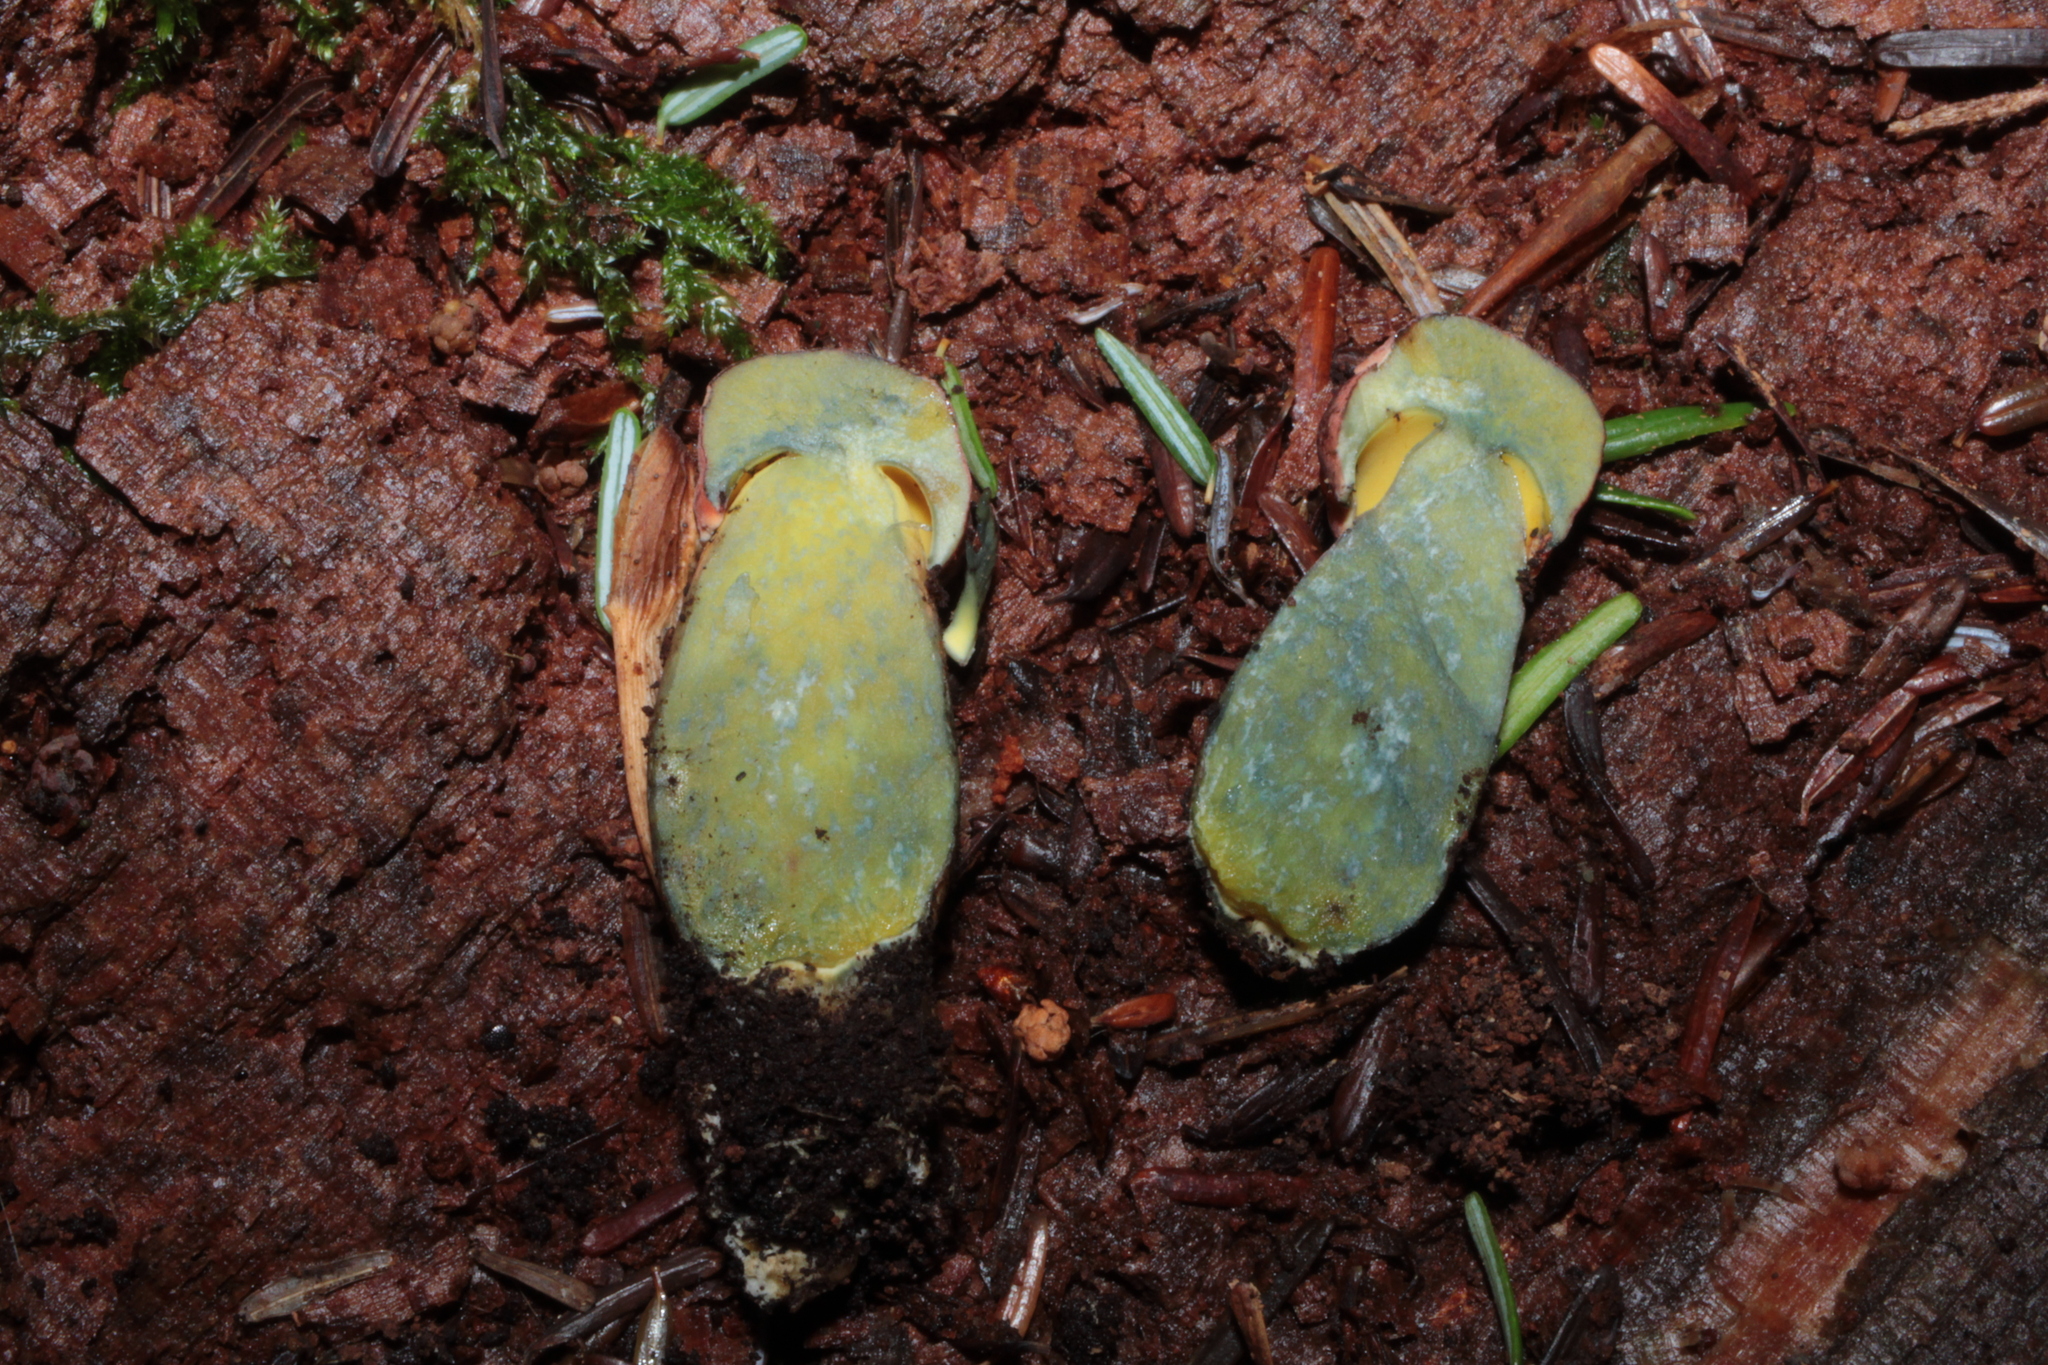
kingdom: Fungi
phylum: Basidiomycota
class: Agaricomycetes
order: Boletales
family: Boletaceae
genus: Boletus
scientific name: Boletus subvelutipes
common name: Red-mouth bolete
